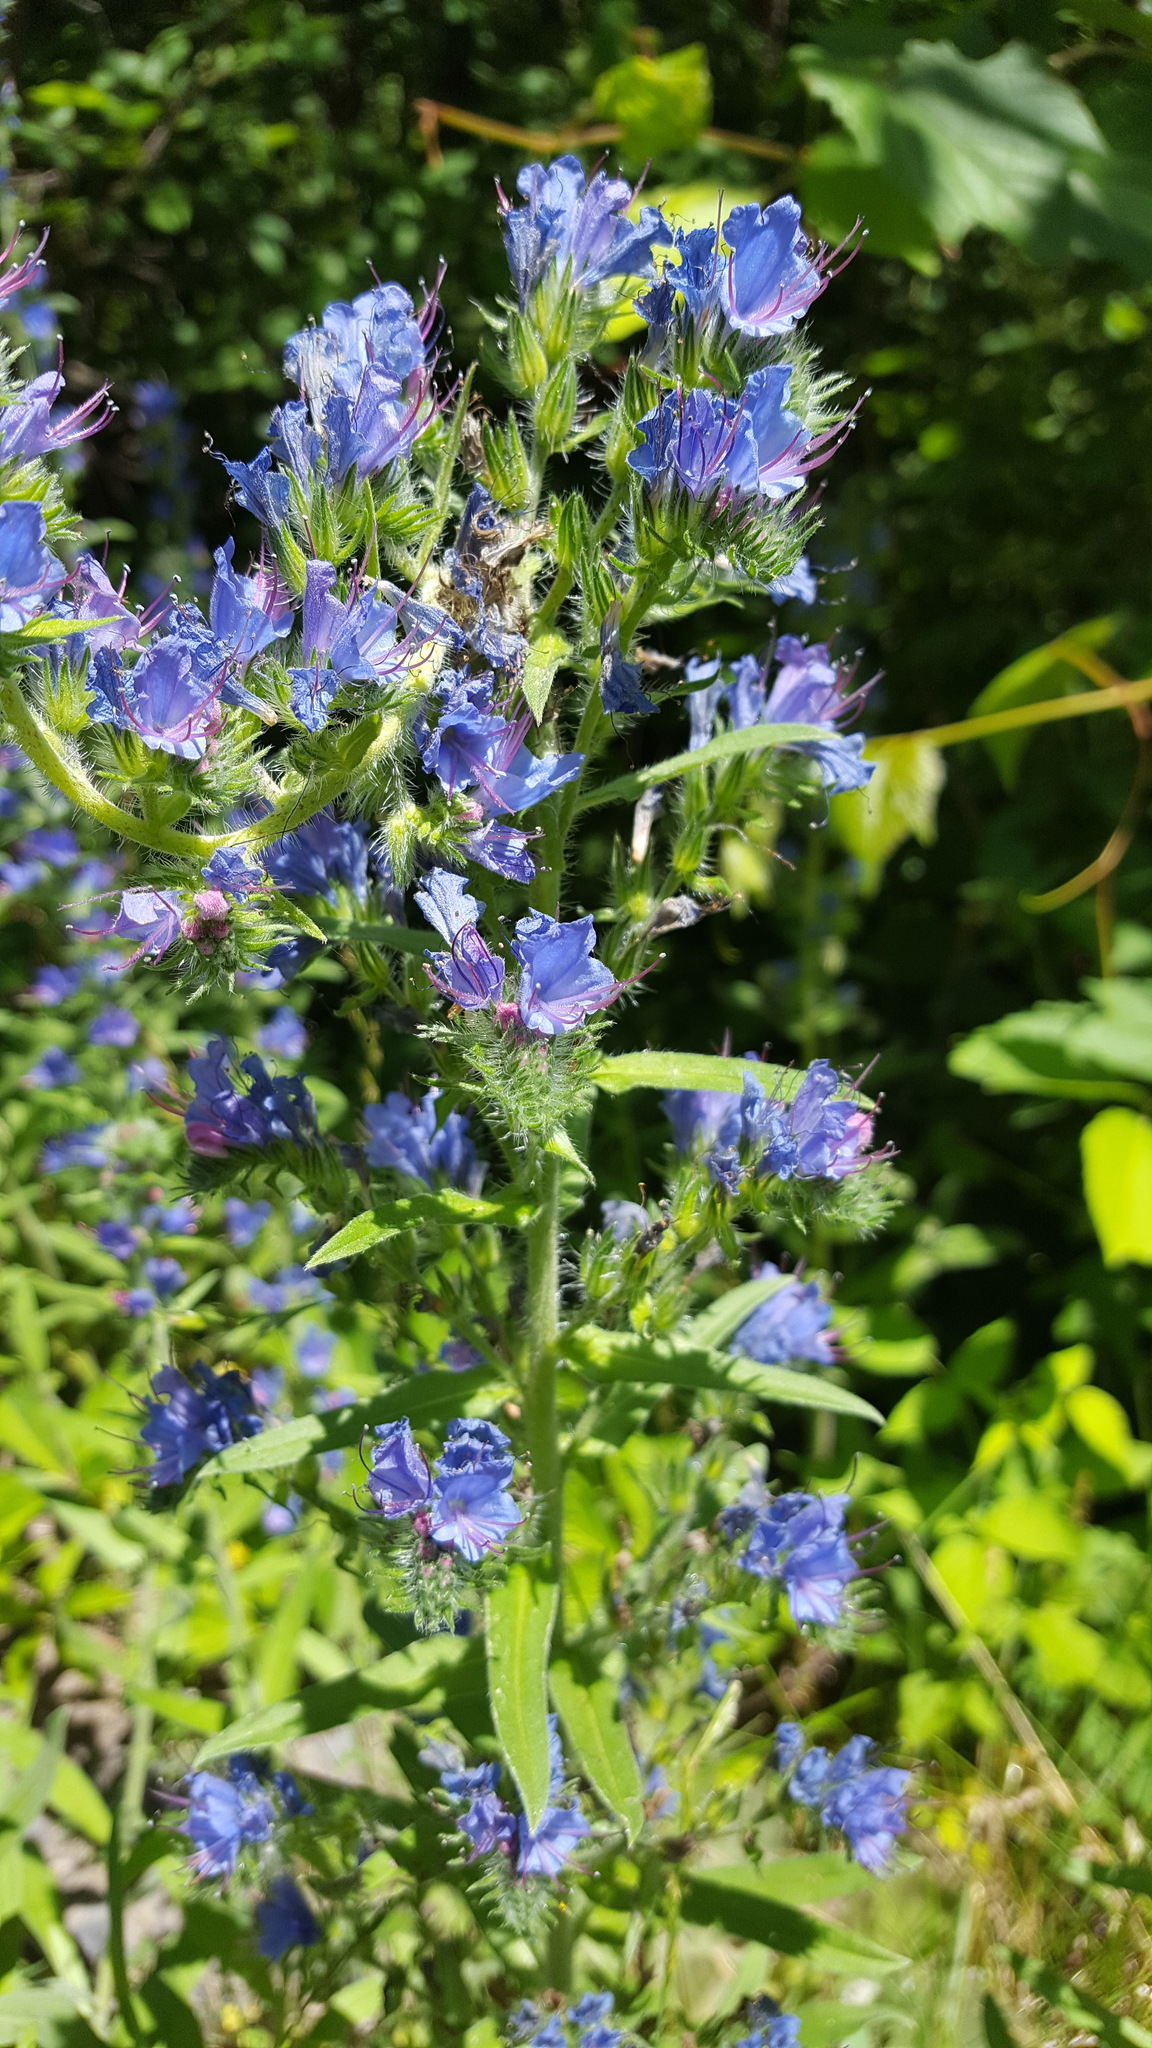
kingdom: Plantae
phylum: Tracheophyta
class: Magnoliopsida
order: Boraginales
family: Boraginaceae
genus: Echium
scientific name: Echium vulgare
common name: Common viper's bugloss
